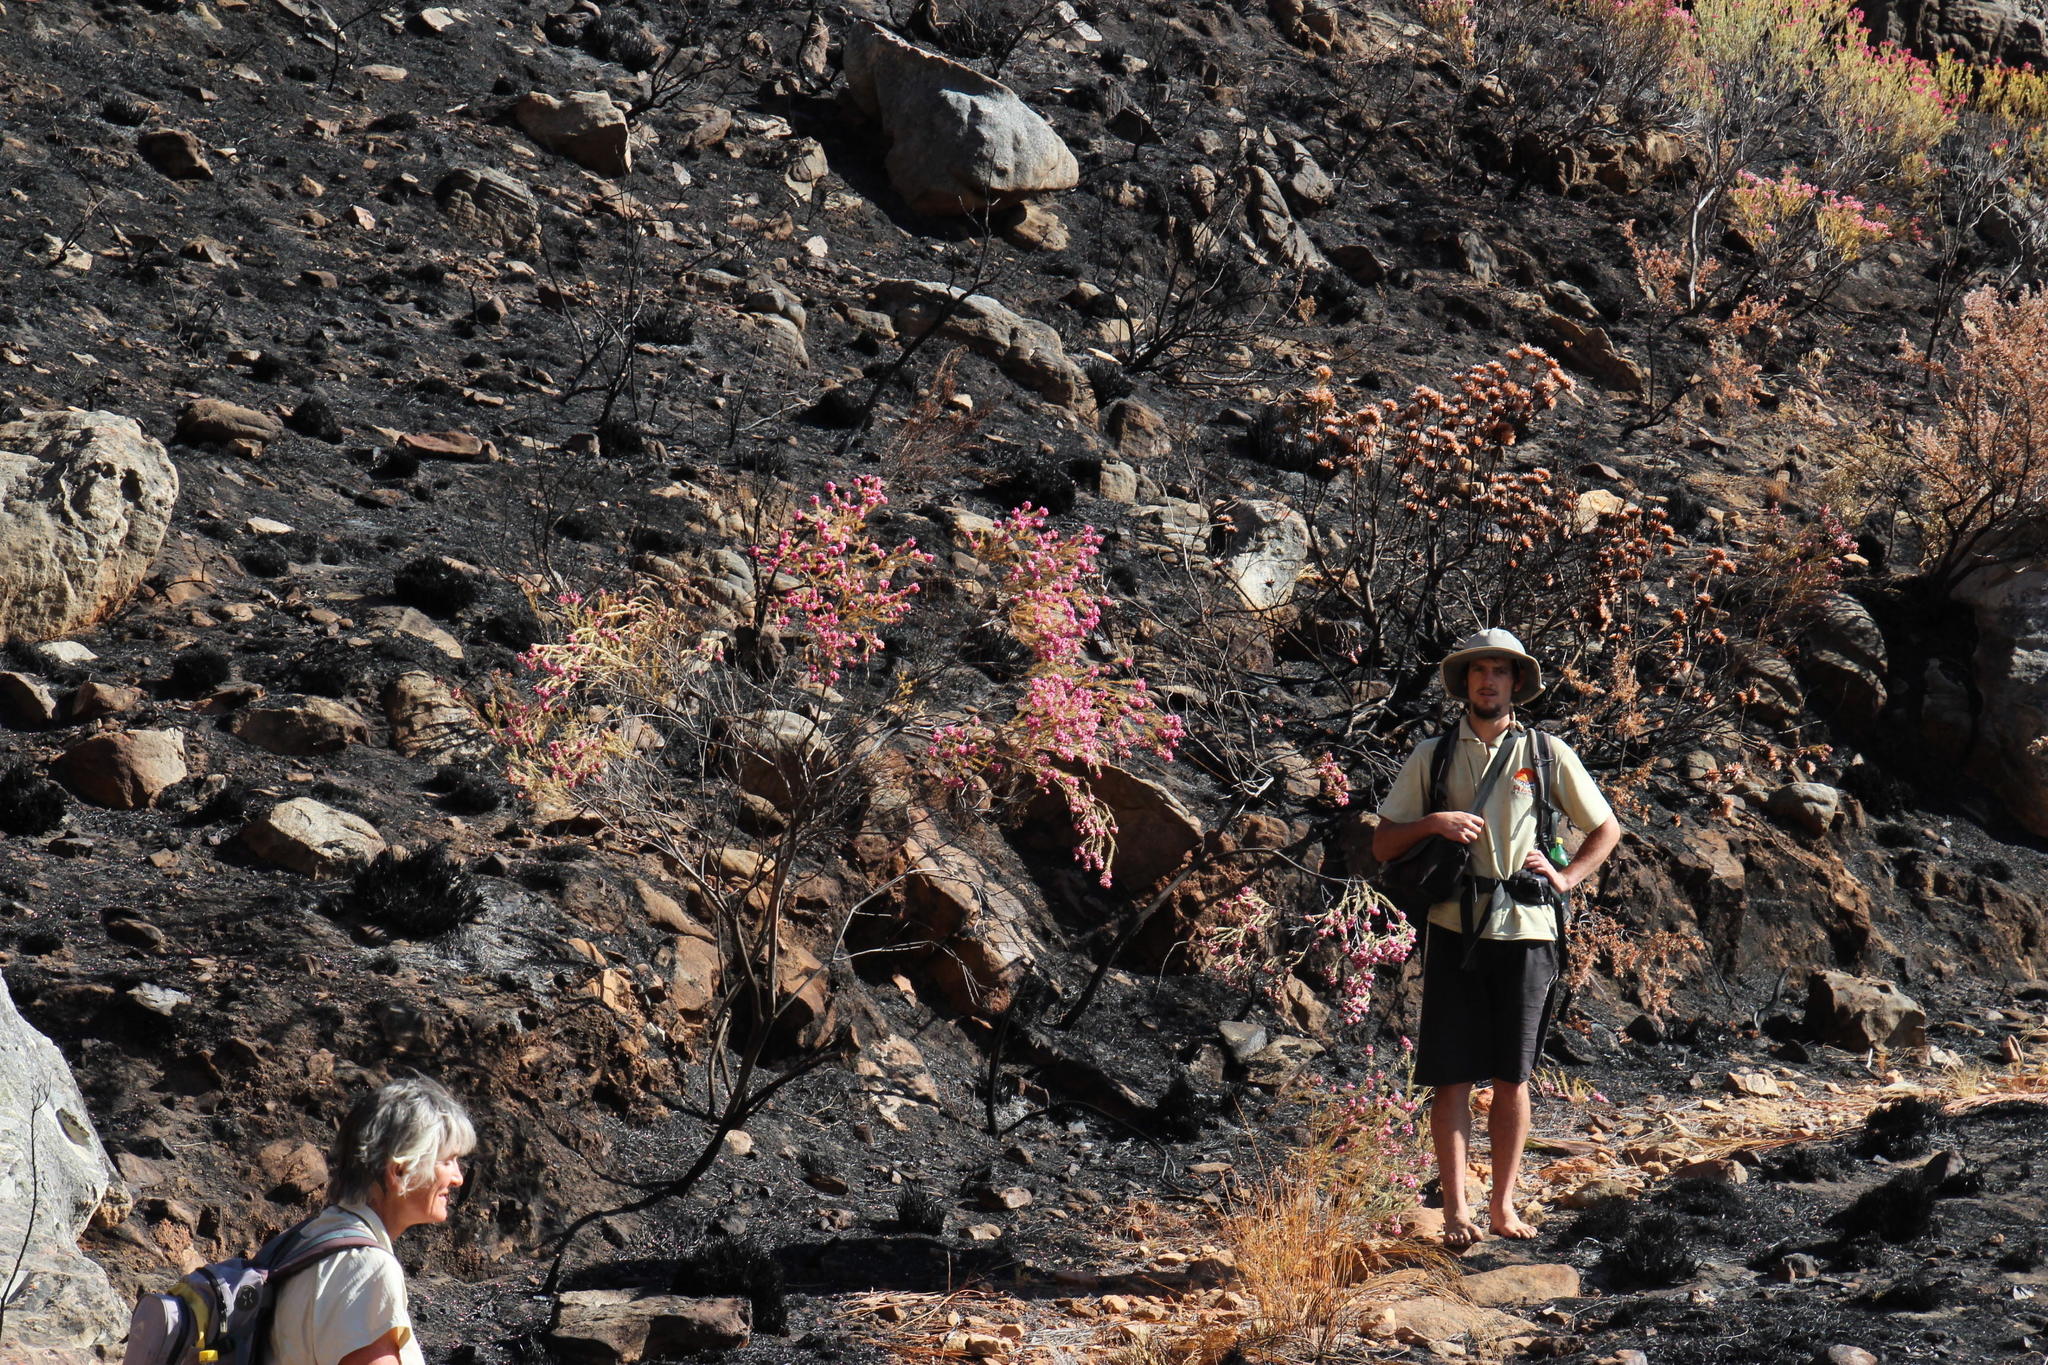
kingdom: Plantae
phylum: Tracheophyta
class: Magnoliopsida
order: Ericales
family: Ericaceae
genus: Erica
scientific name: Erica inflata
